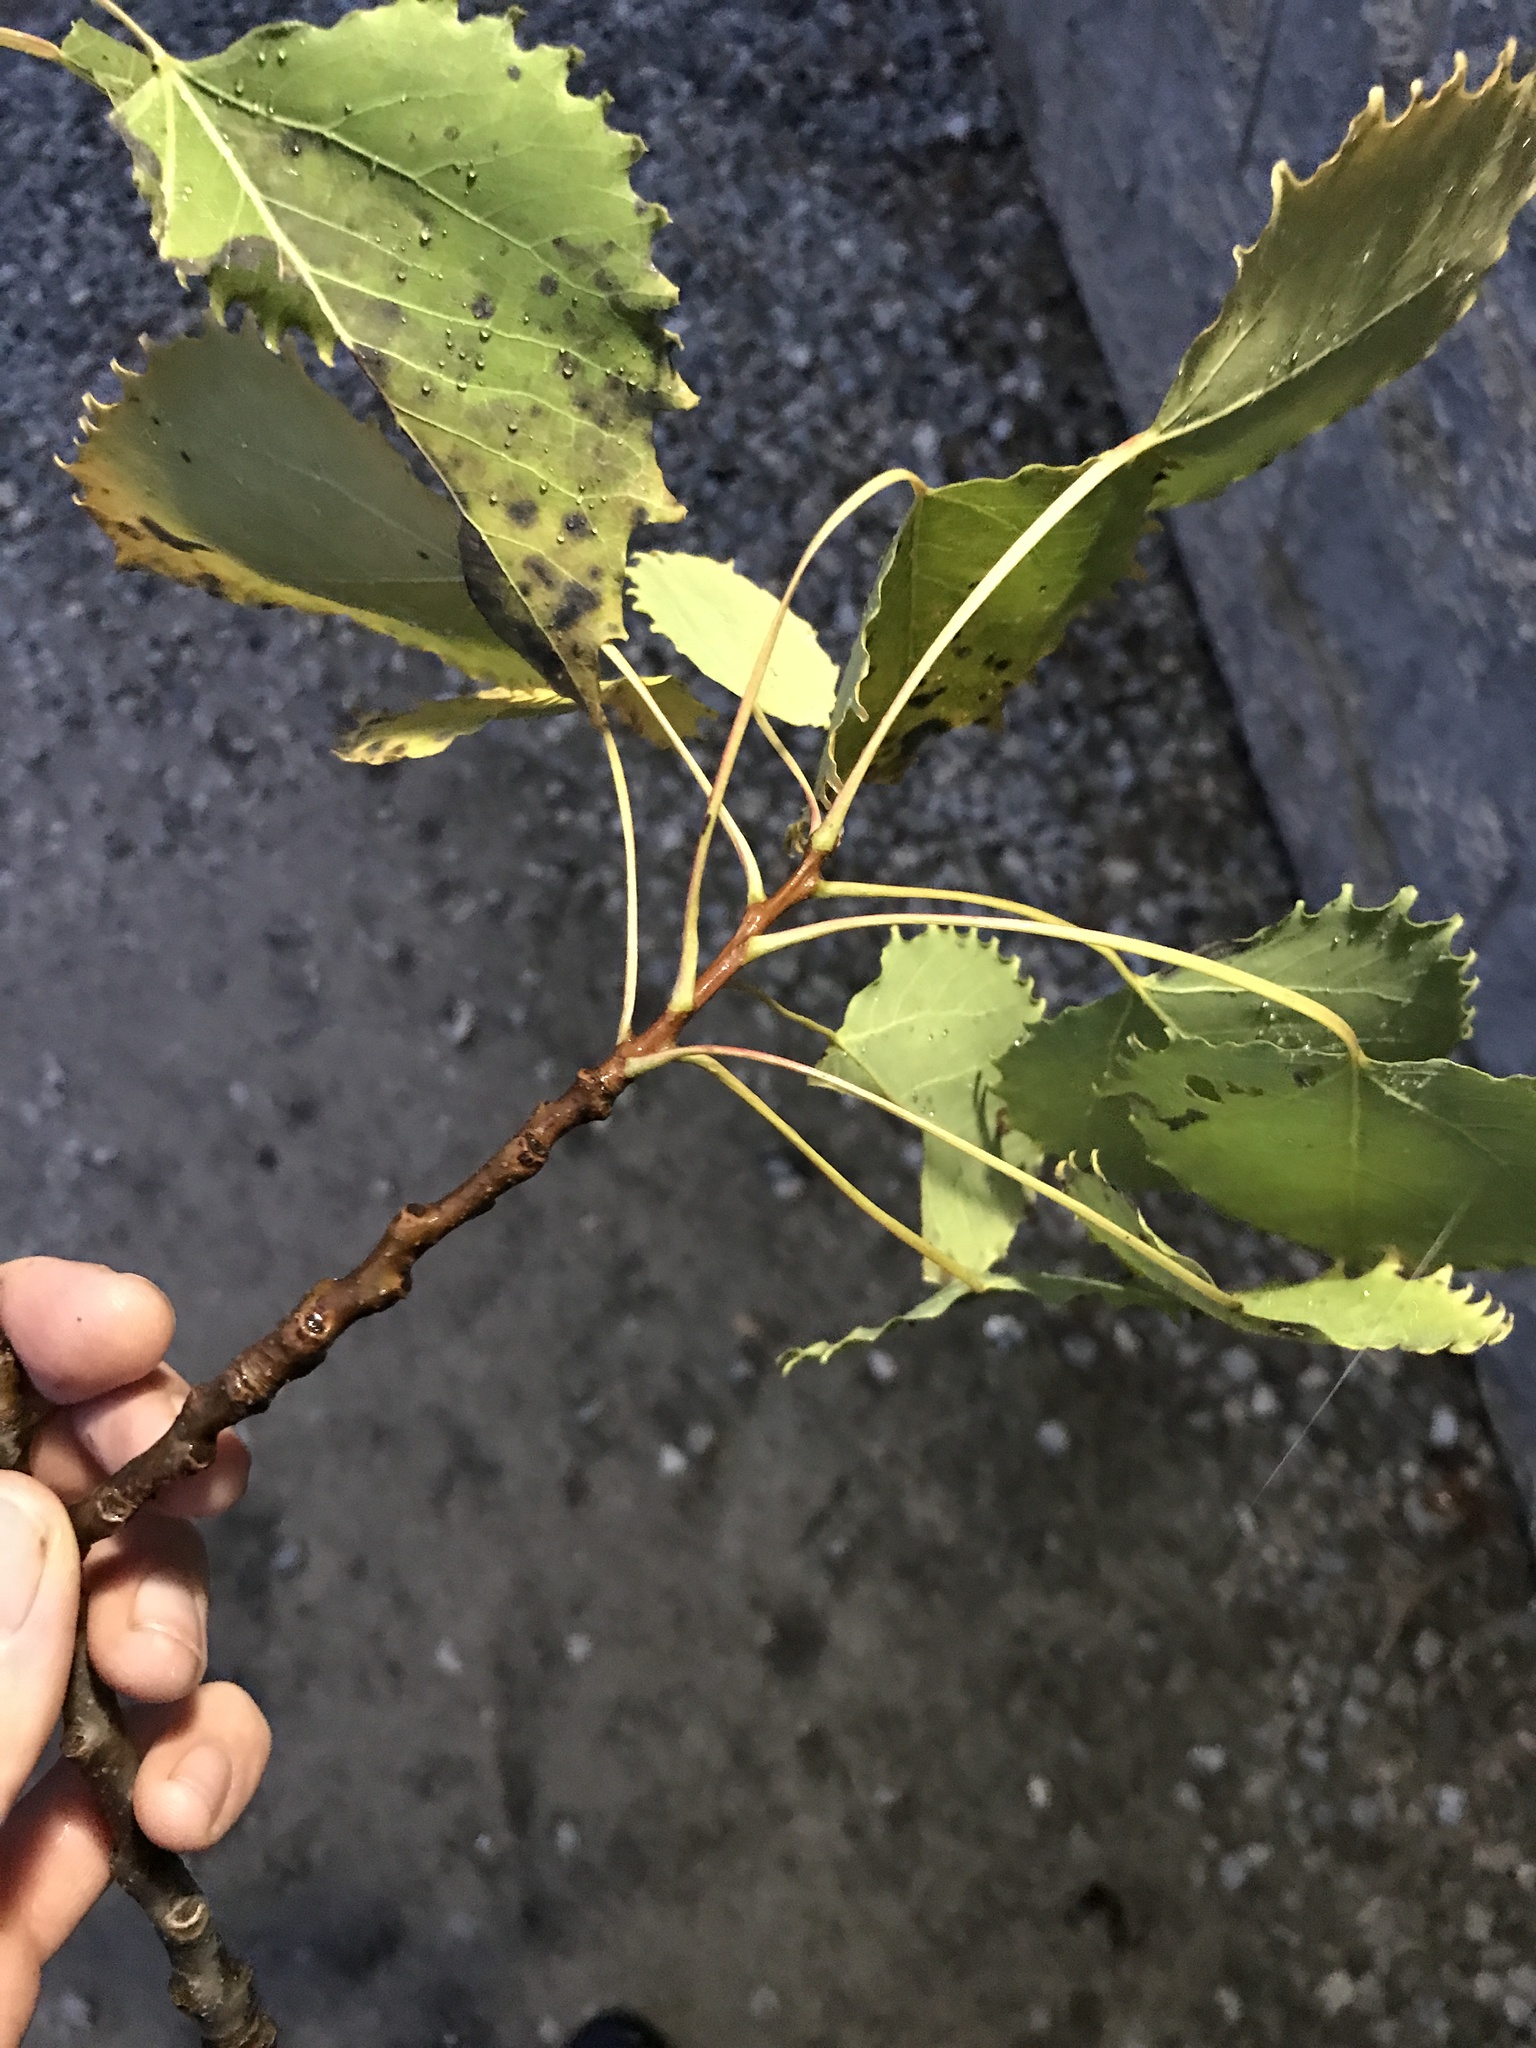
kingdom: Plantae
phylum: Tracheophyta
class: Magnoliopsida
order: Malpighiales
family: Salicaceae
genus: Populus
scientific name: Populus grandidentata
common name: Bigtooth aspen
